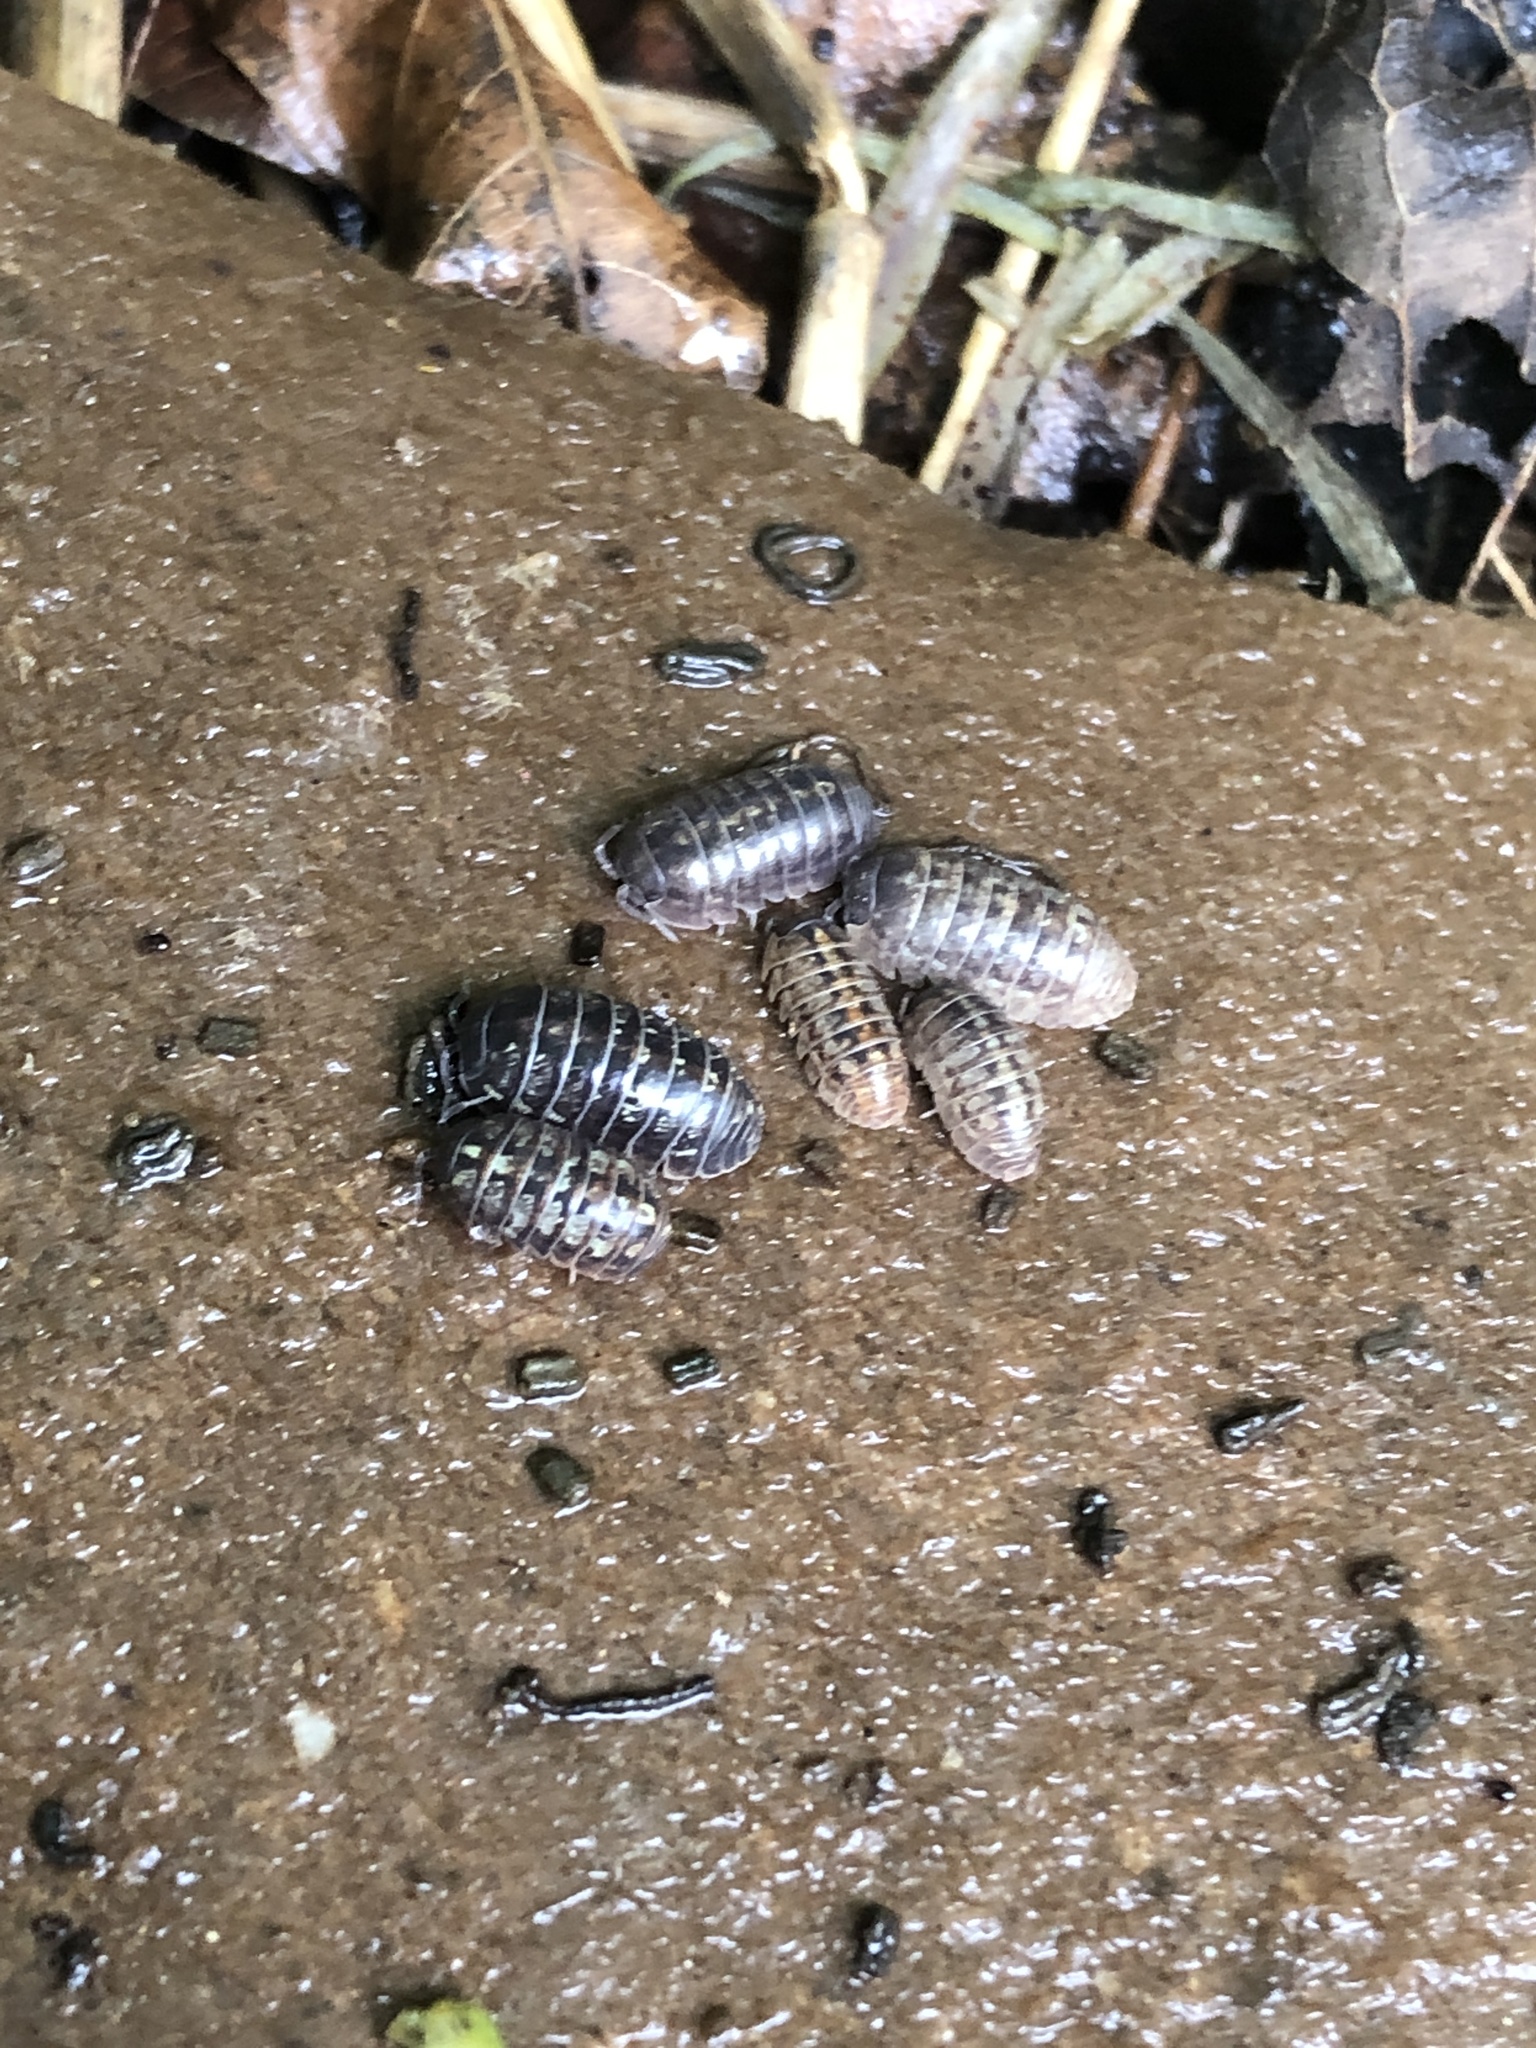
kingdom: Animalia
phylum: Arthropoda
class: Malacostraca
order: Isopoda
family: Armadillidiidae
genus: Armadillidium
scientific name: Armadillidium vulgare
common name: Common pill woodlouse
